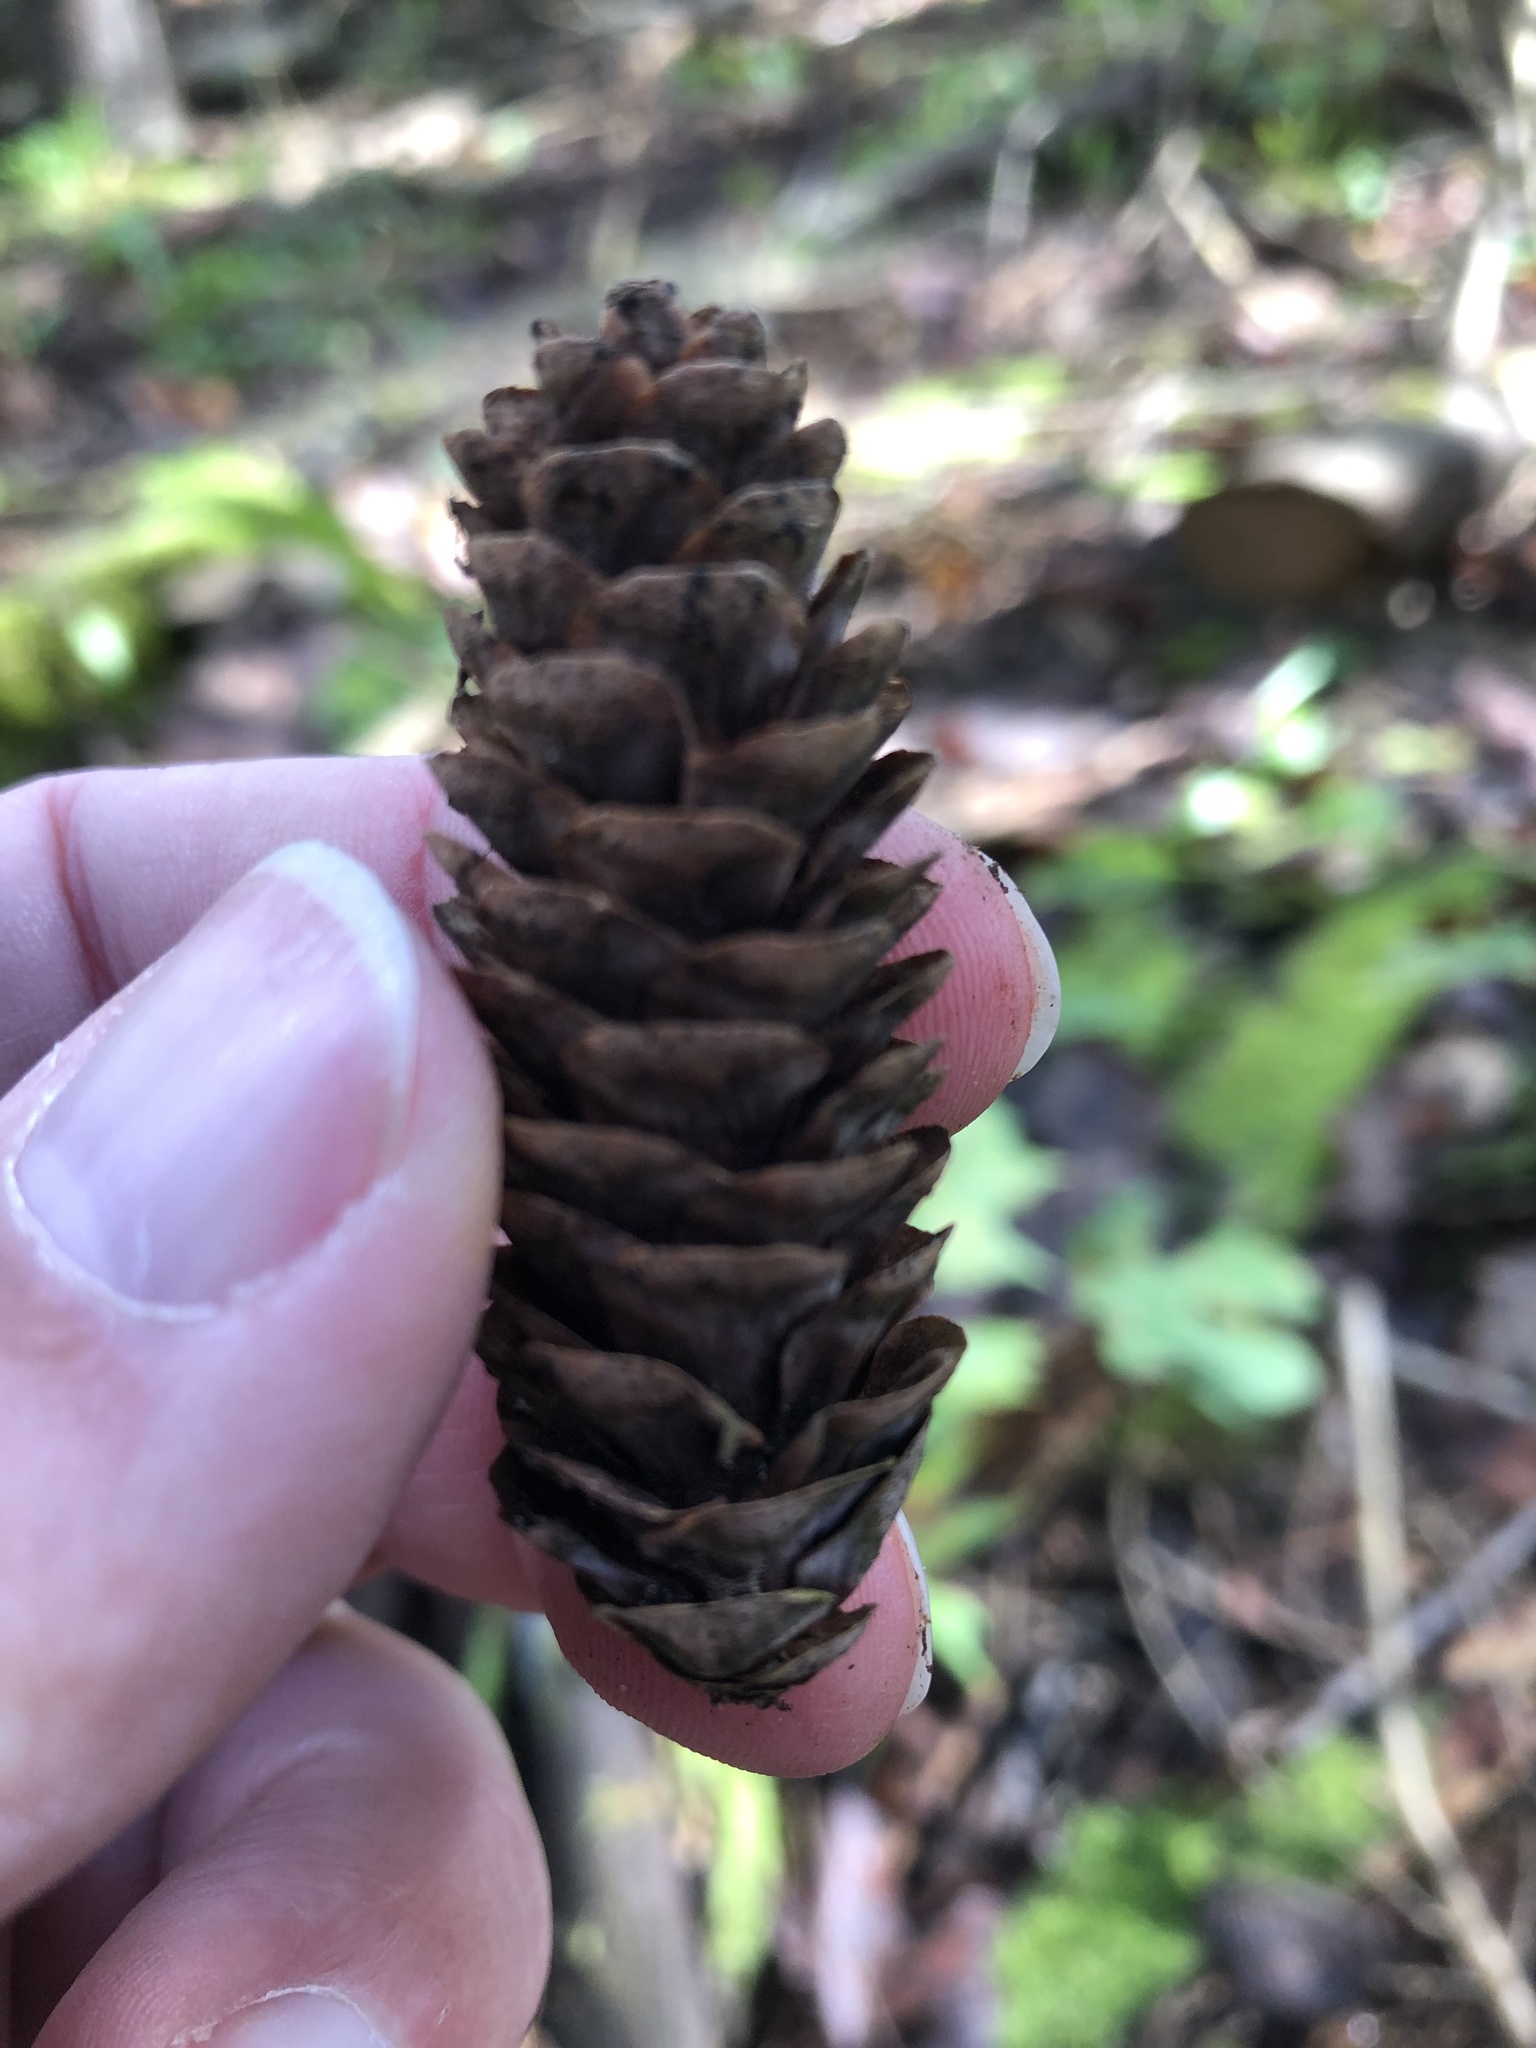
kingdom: Plantae
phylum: Tracheophyta
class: Pinopsida
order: Pinales
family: Pinaceae
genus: Picea
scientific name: Picea glauca
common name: White spruce
